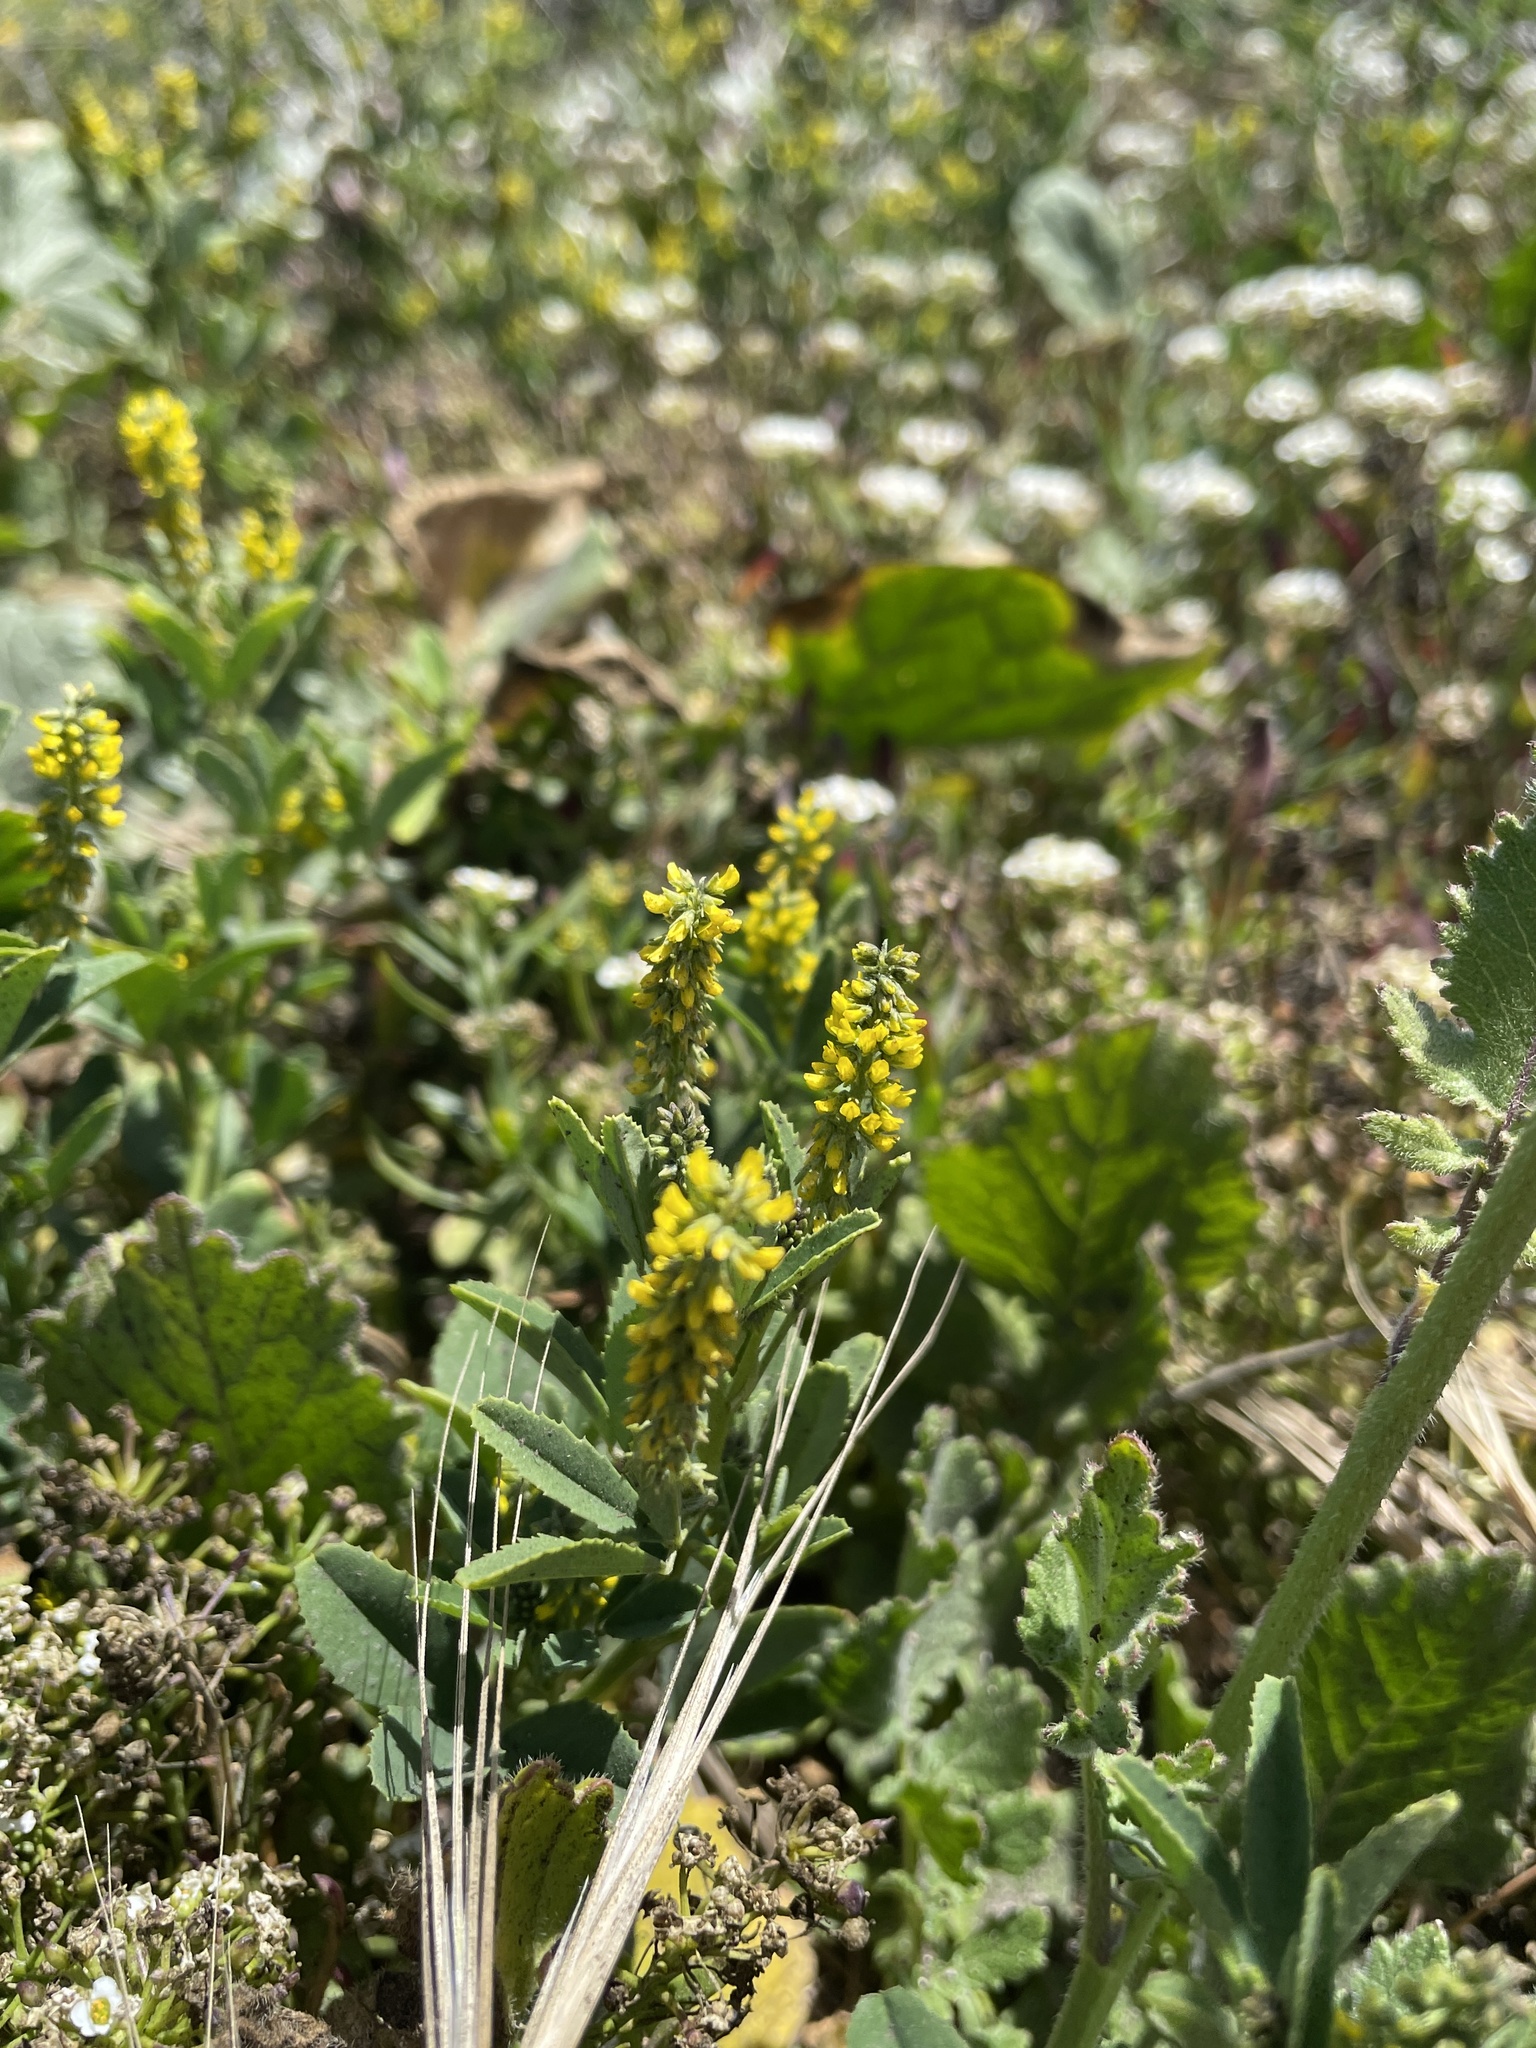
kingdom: Plantae
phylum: Tracheophyta
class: Magnoliopsida
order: Fabales
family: Fabaceae
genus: Melilotus
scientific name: Melilotus indicus
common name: Small melilot
